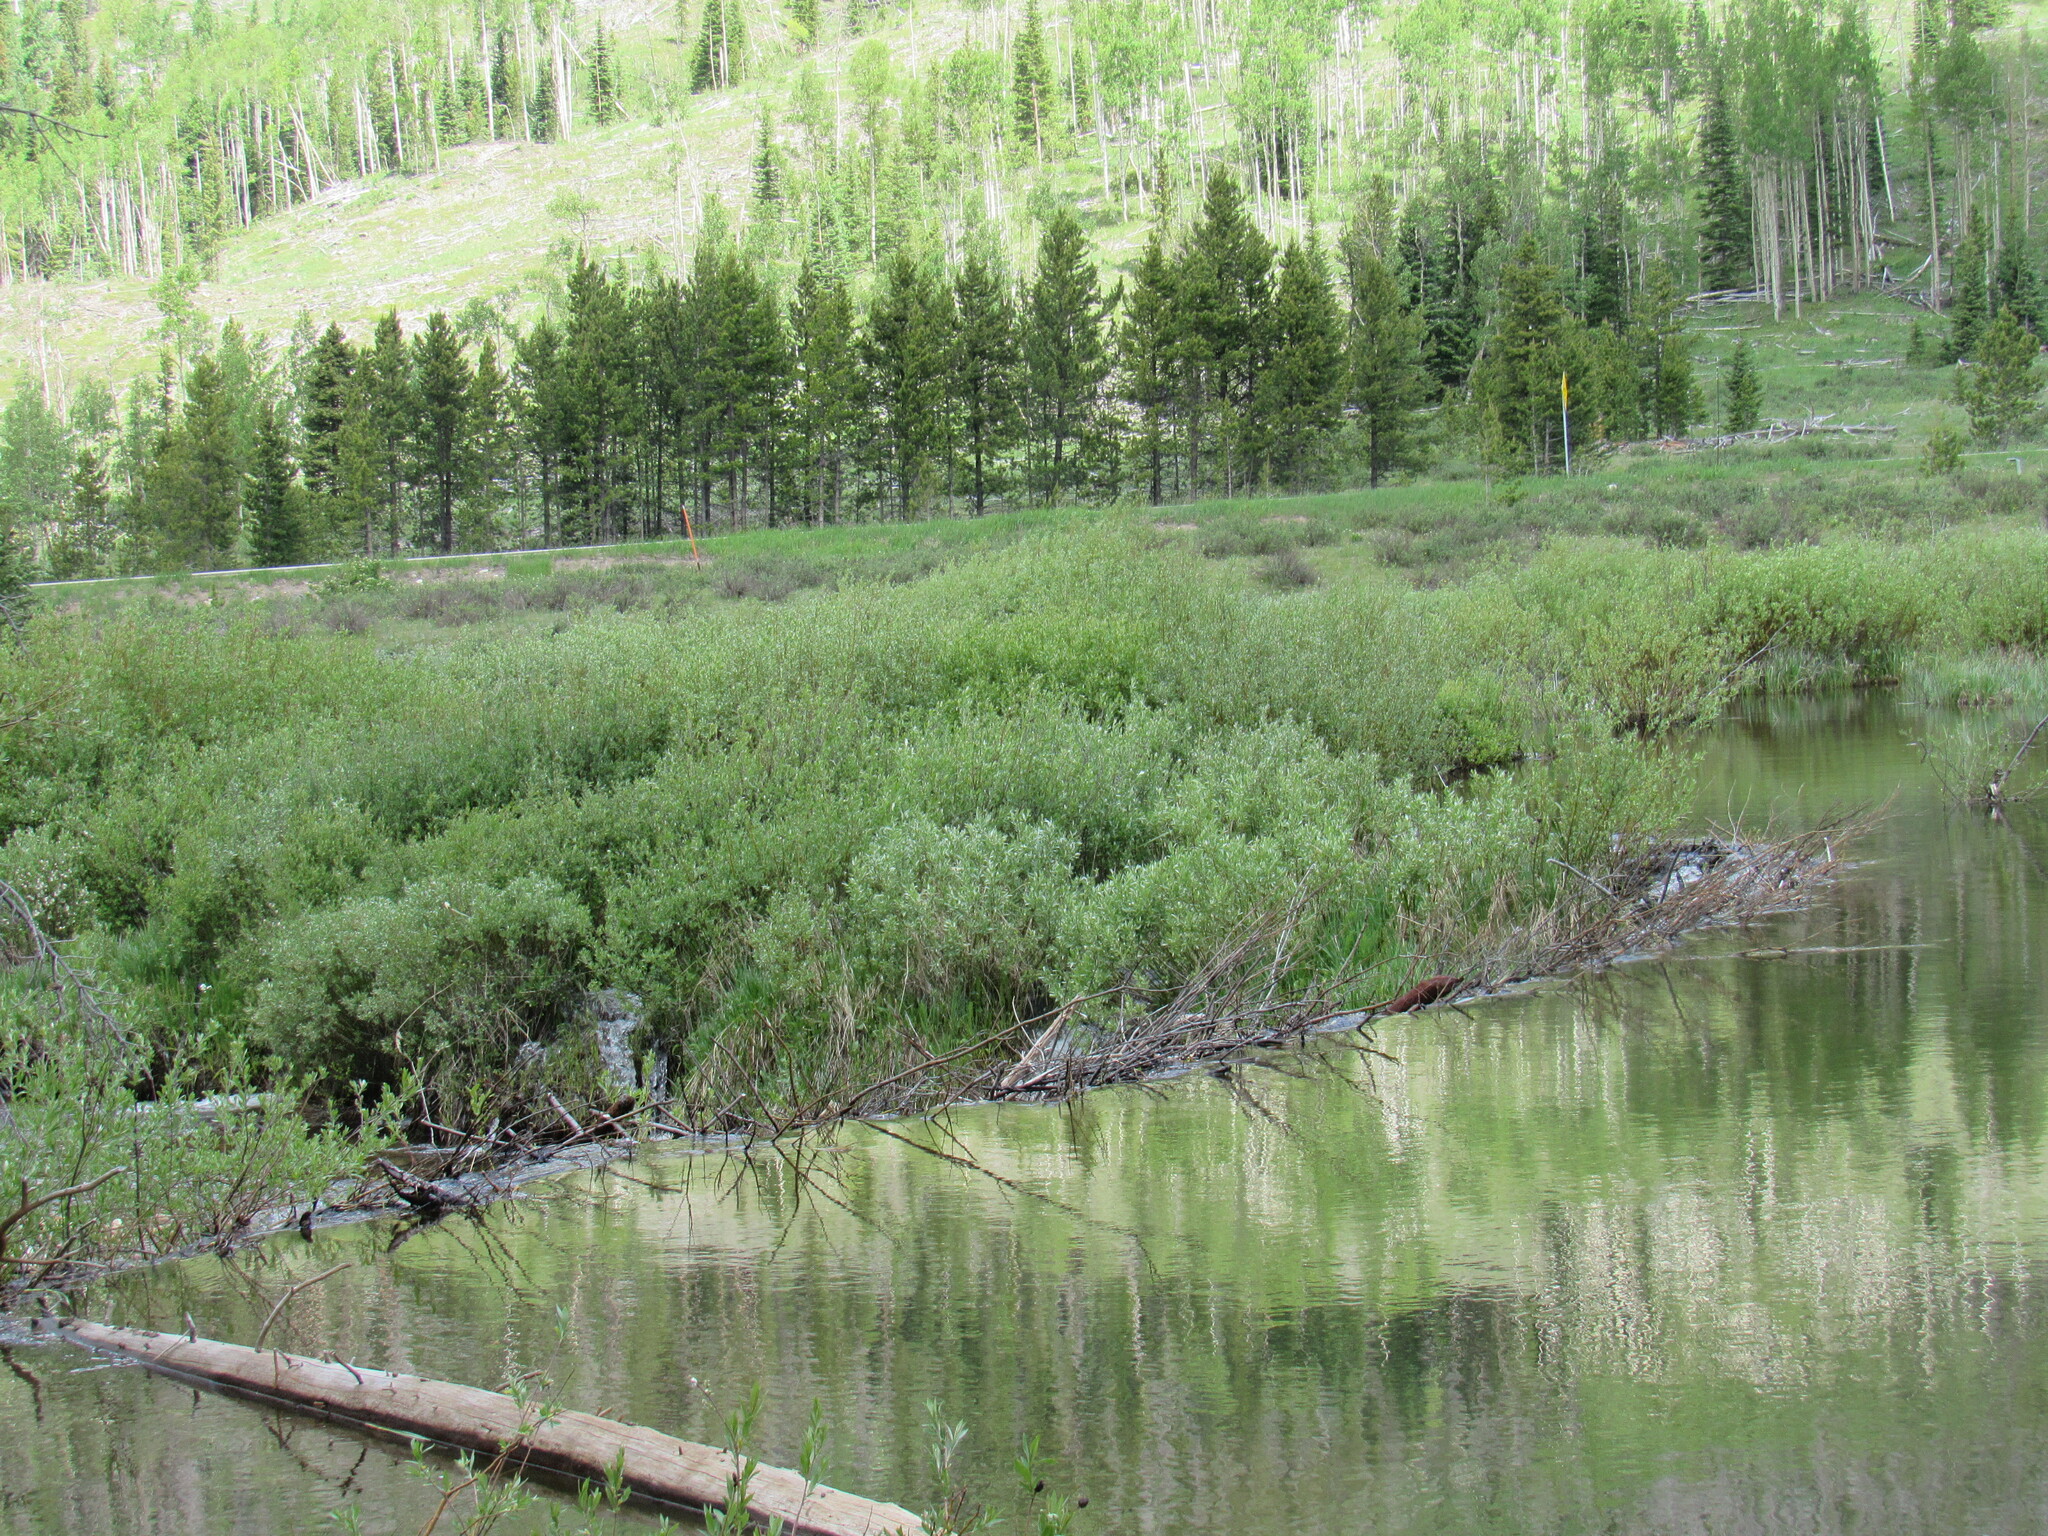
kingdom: Animalia
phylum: Chordata
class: Mammalia
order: Rodentia
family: Castoridae
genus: Castor
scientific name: Castor canadensis
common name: American beaver
